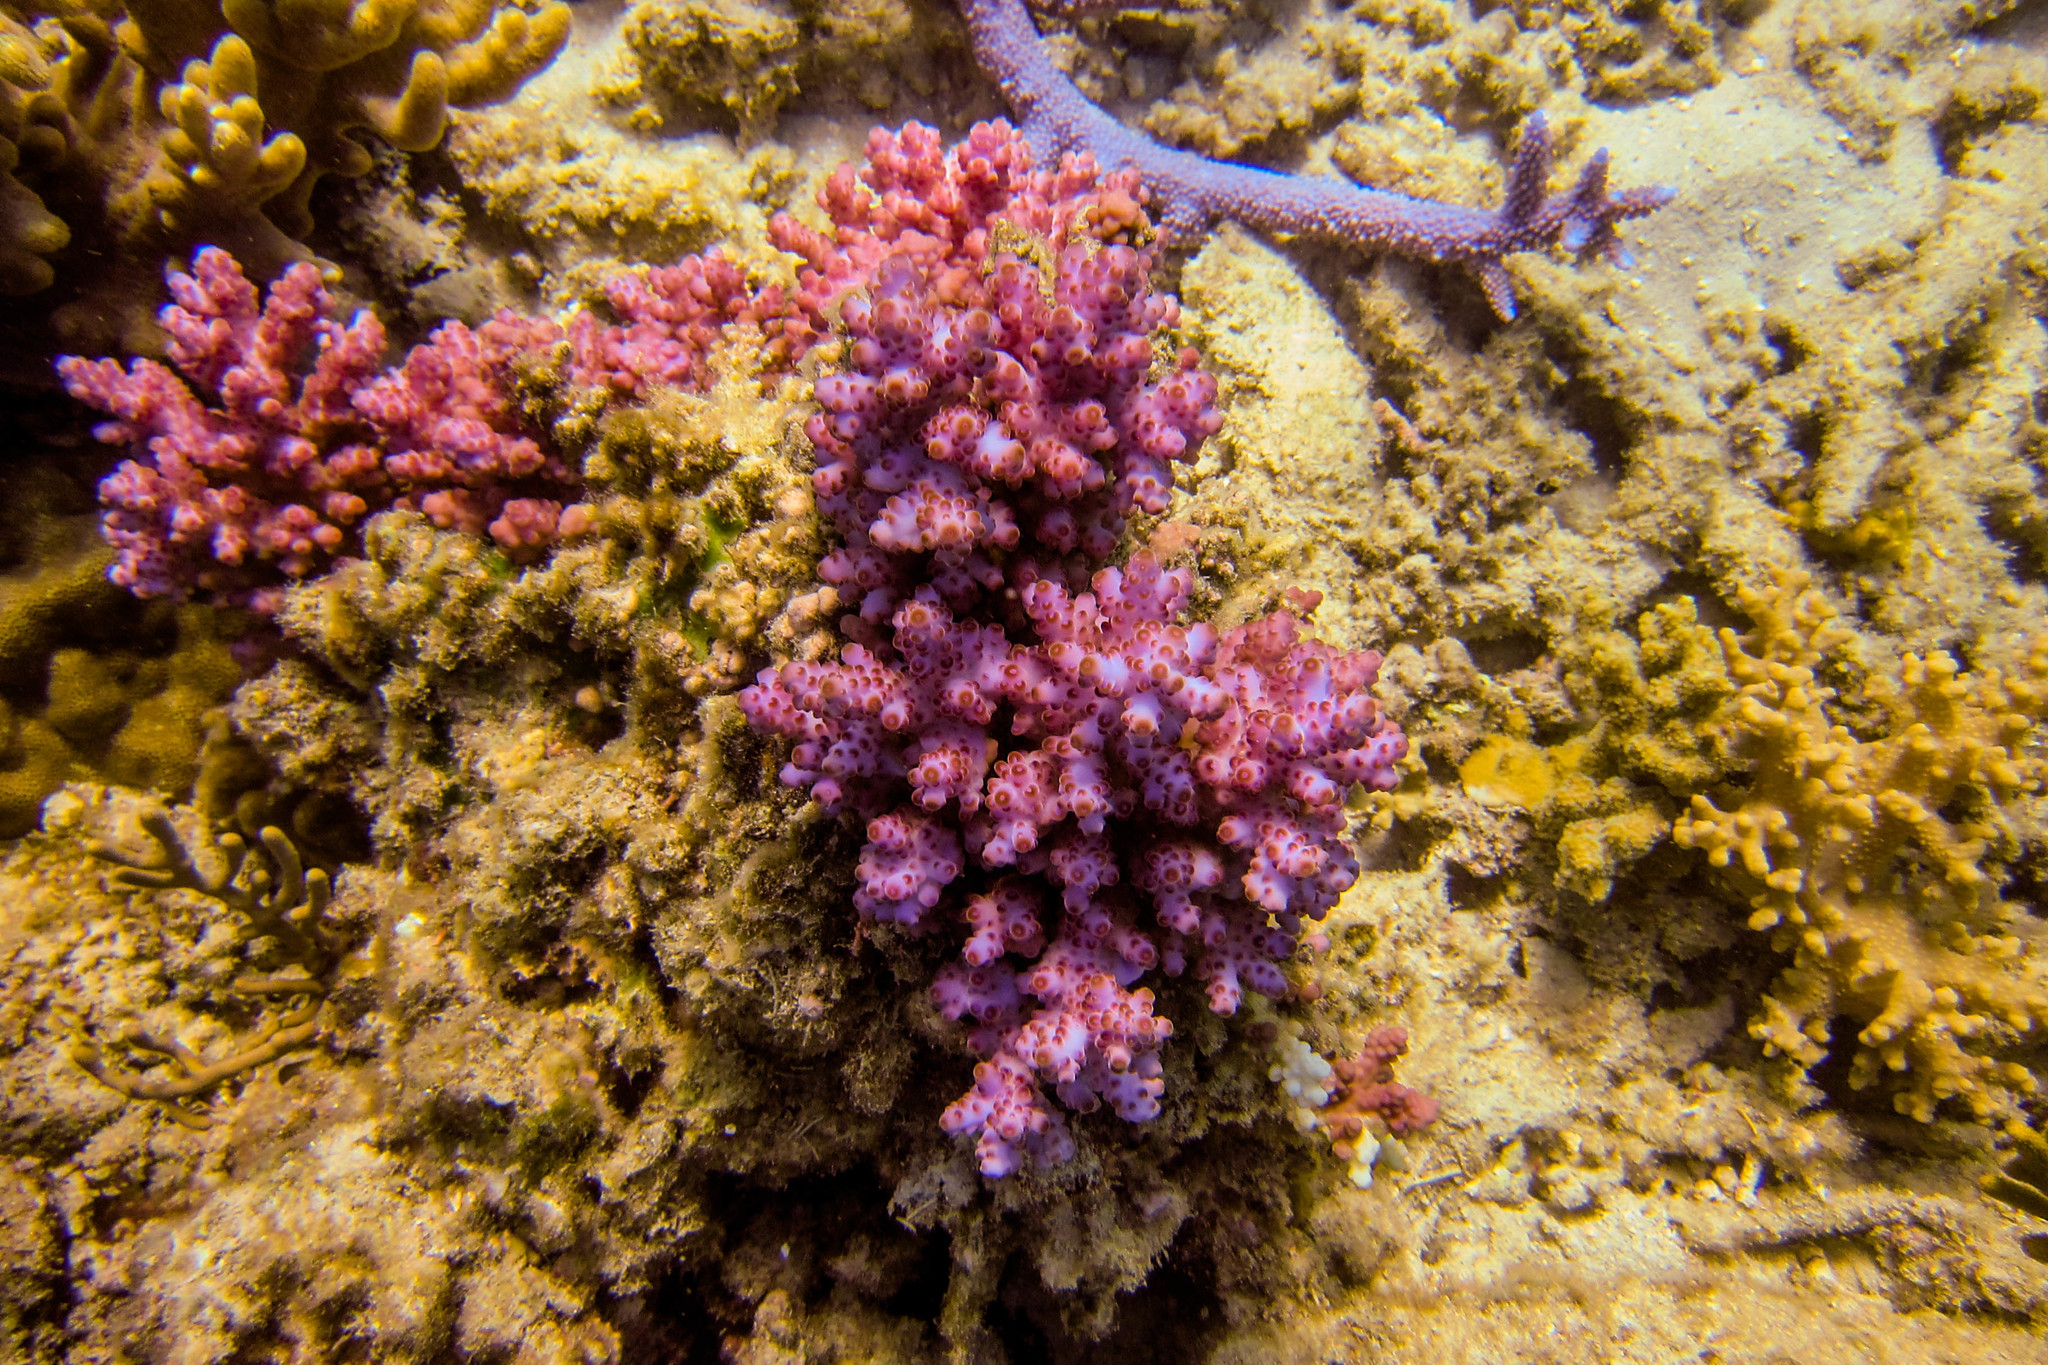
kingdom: Animalia
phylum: Cnidaria
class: Anthozoa
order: Scleractinia
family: Acroporidae
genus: Acropora
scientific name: Acropora loripes
